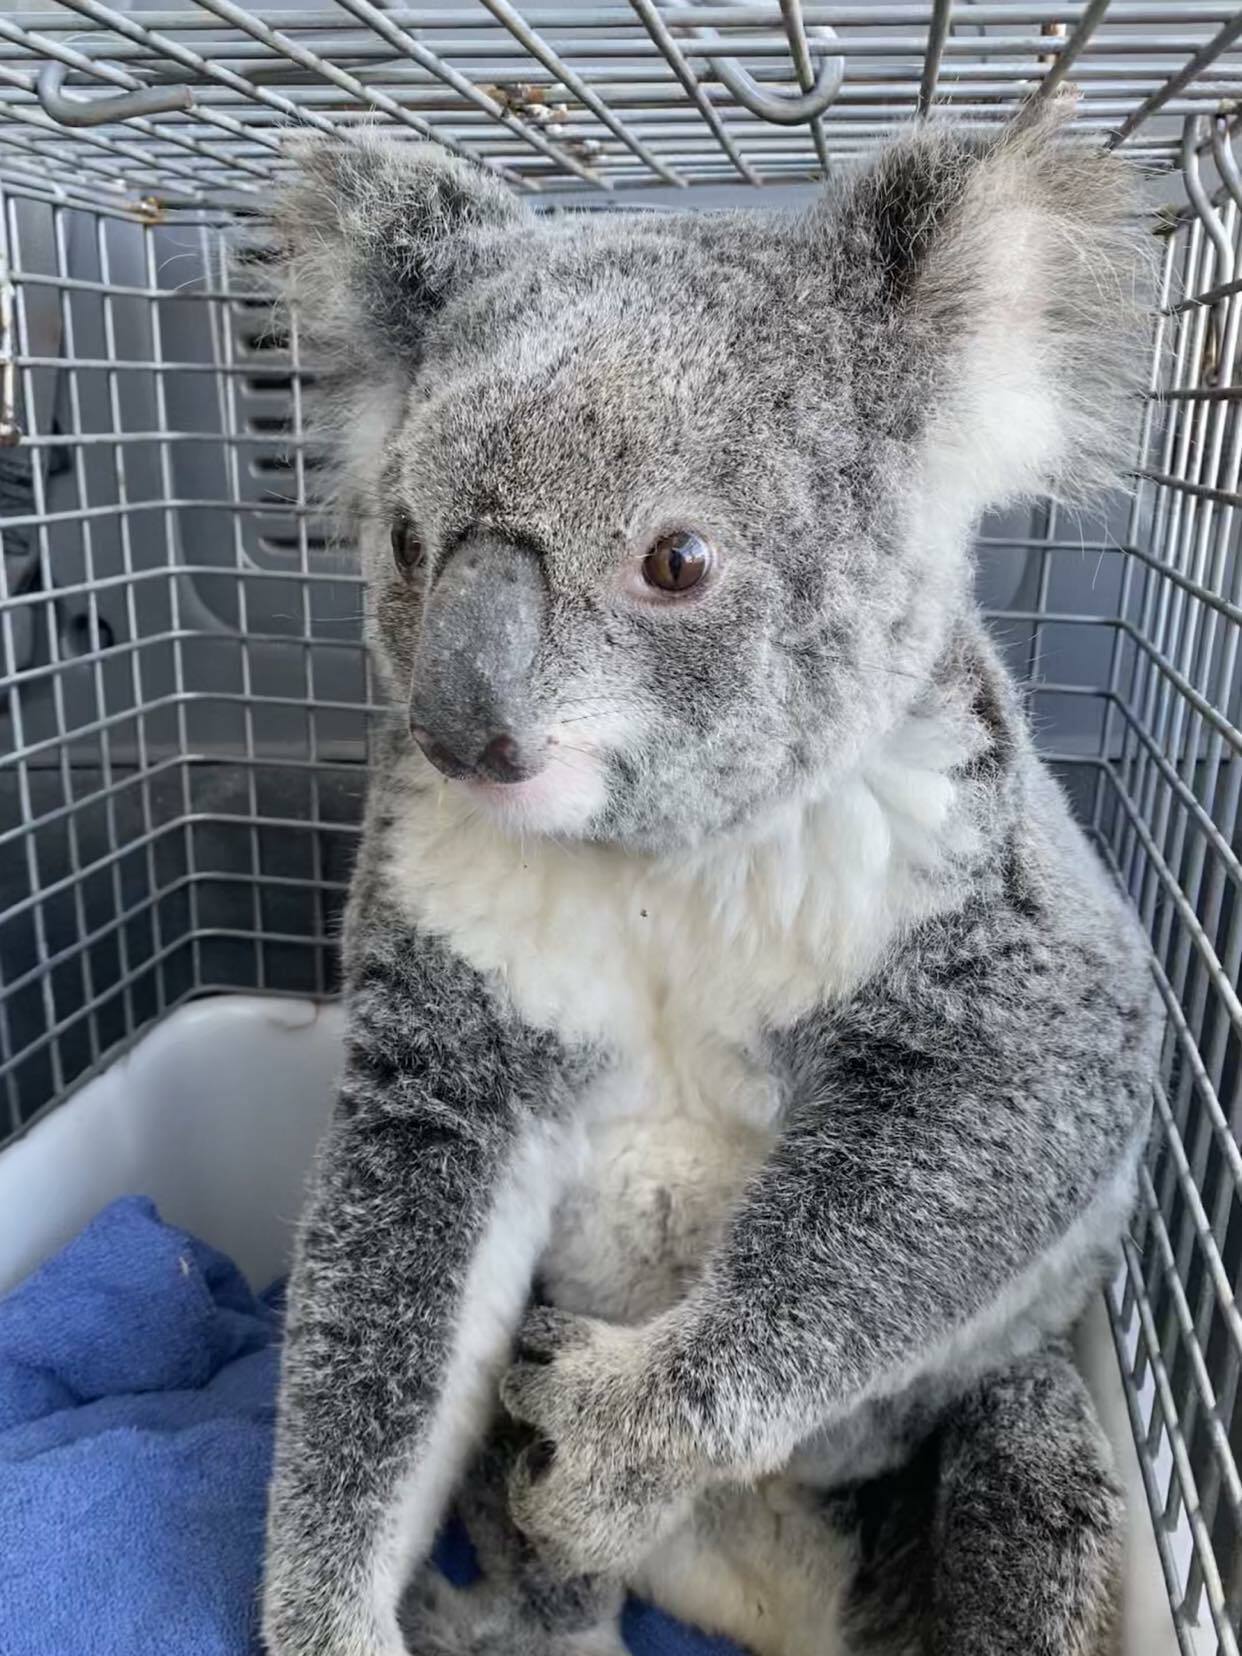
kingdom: Animalia
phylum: Chordata
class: Mammalia
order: Diprotodontia
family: Phascolarctidae
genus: Phascolarctos
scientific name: Phascolarctos cinereus
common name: Koala
